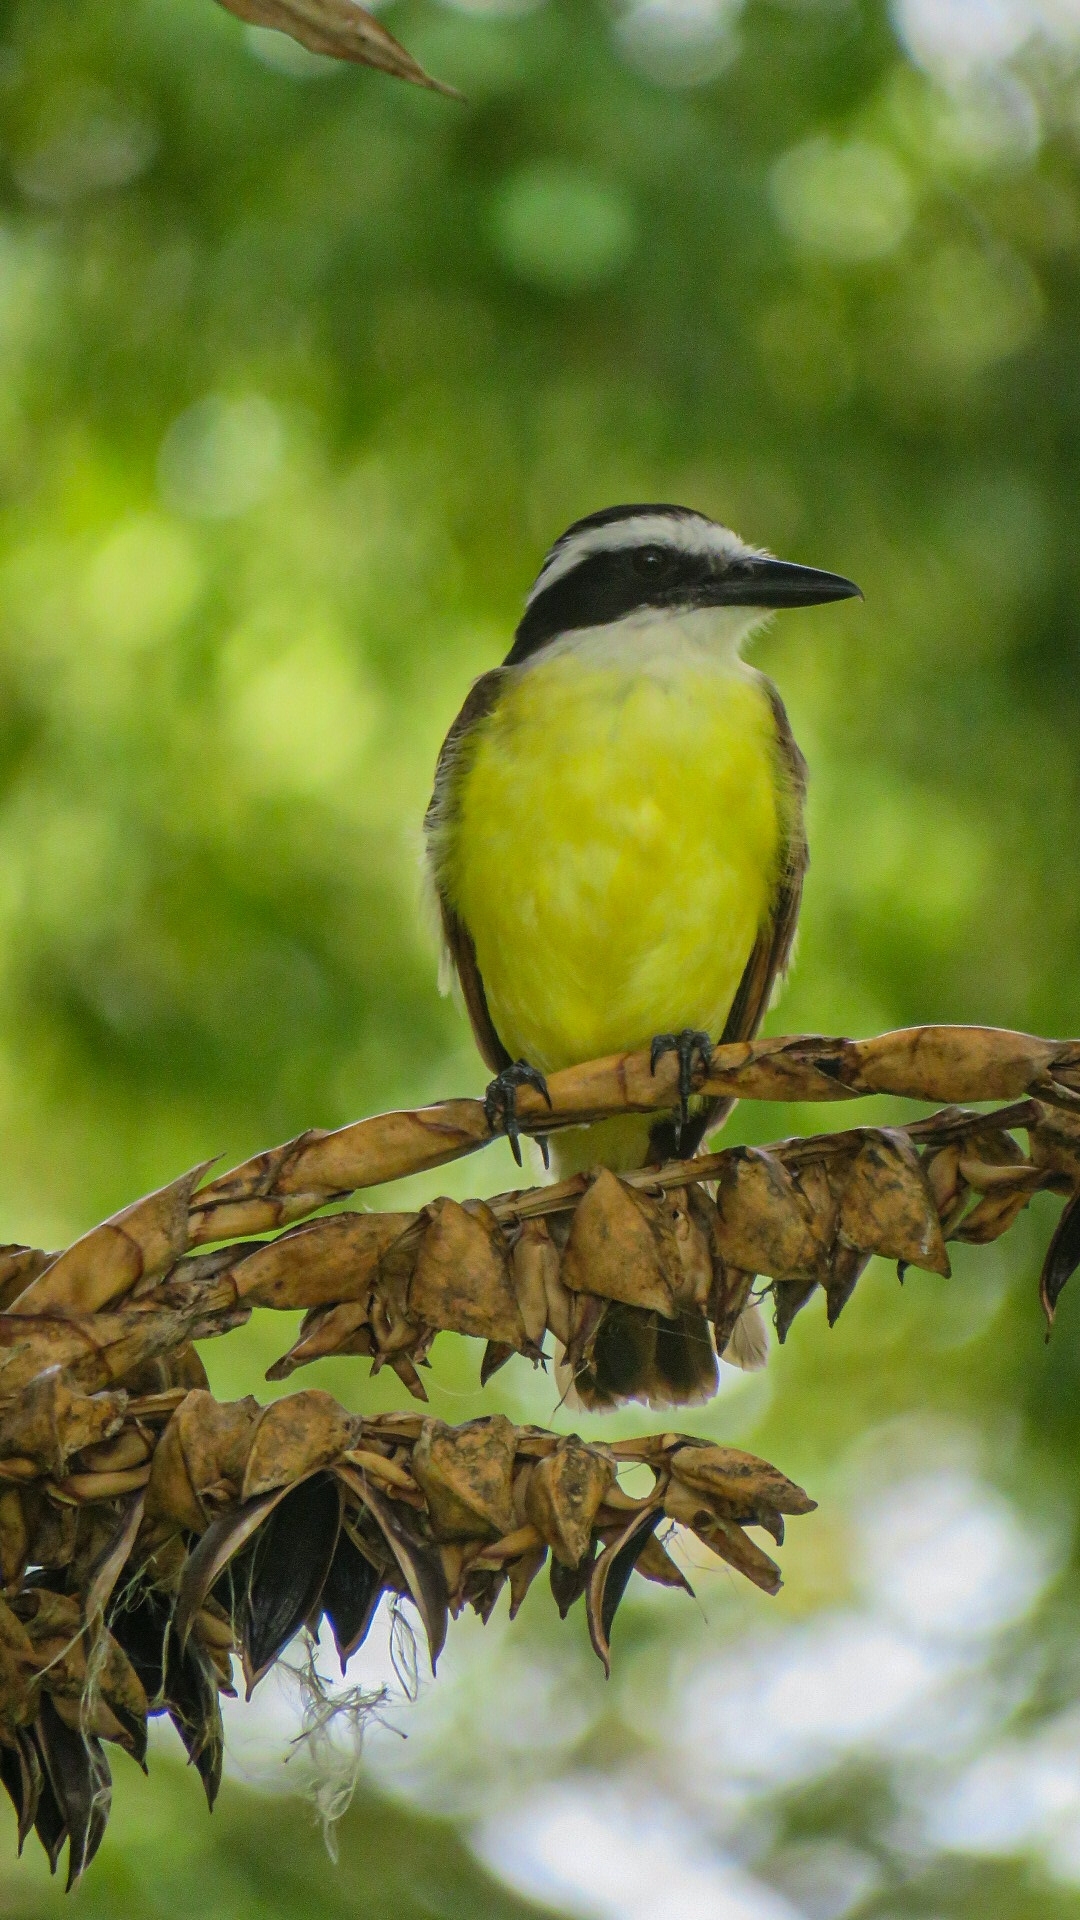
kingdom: Animalia
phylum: Chordata
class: Aves
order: Passeriformes
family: Tyrannidae
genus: Pitangus
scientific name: Pitangus sulphuratus
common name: Great kiskadee
